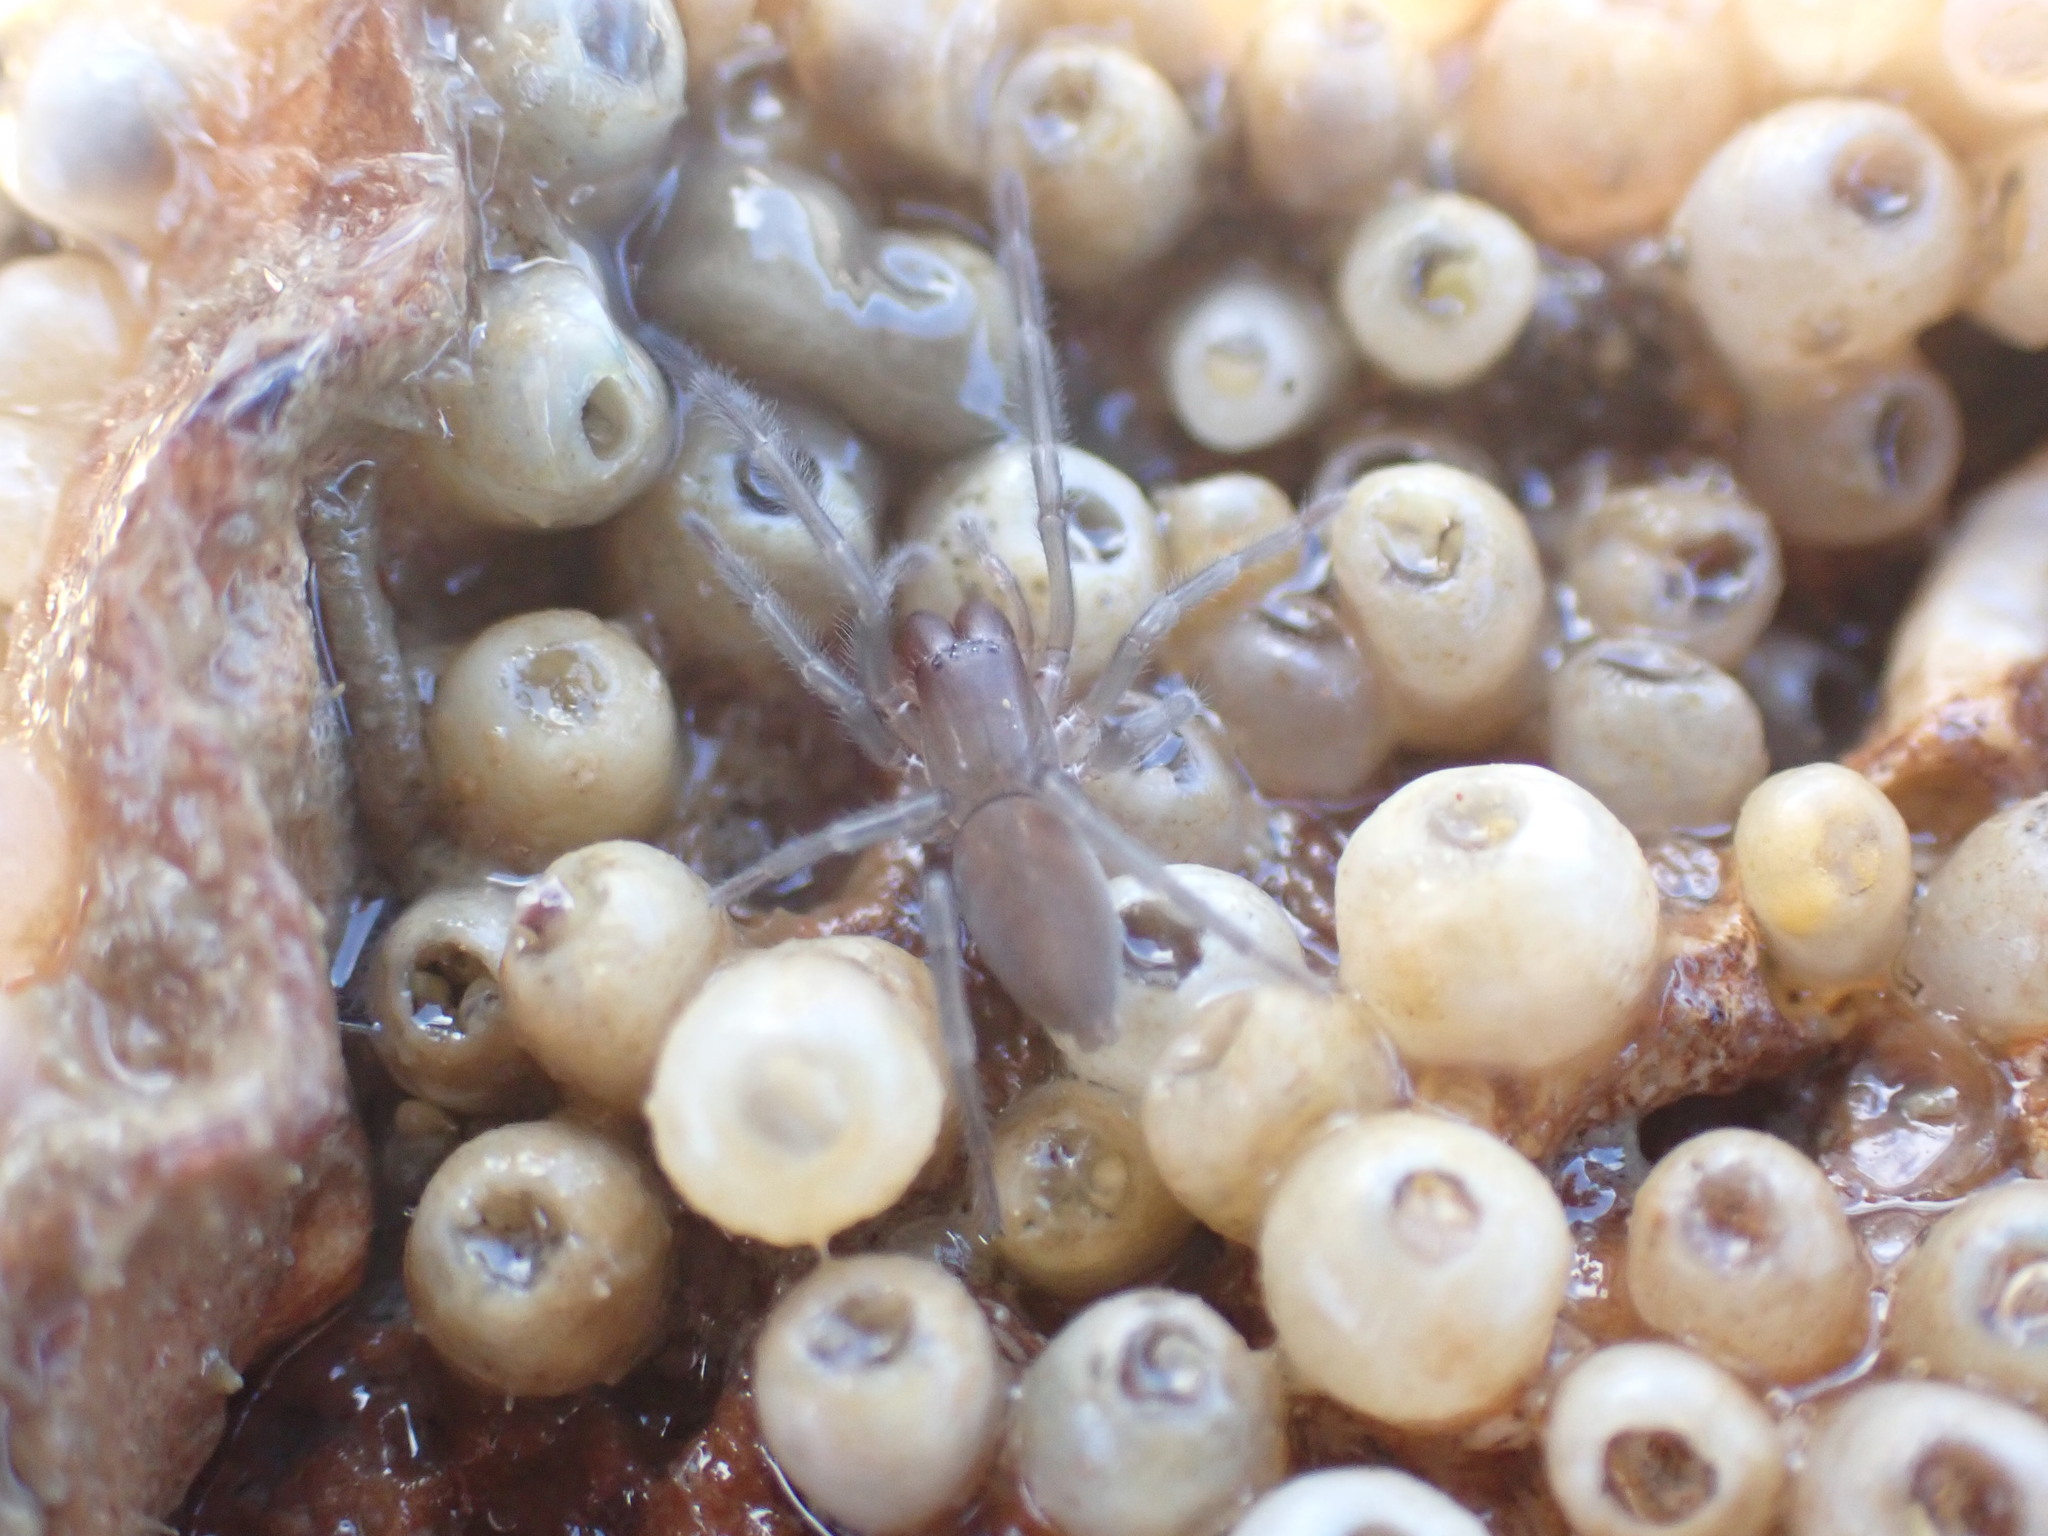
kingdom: Animalia
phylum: Arthropoda
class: Arachnida
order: Araneae
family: Desidae
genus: Desis
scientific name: Desis marina
